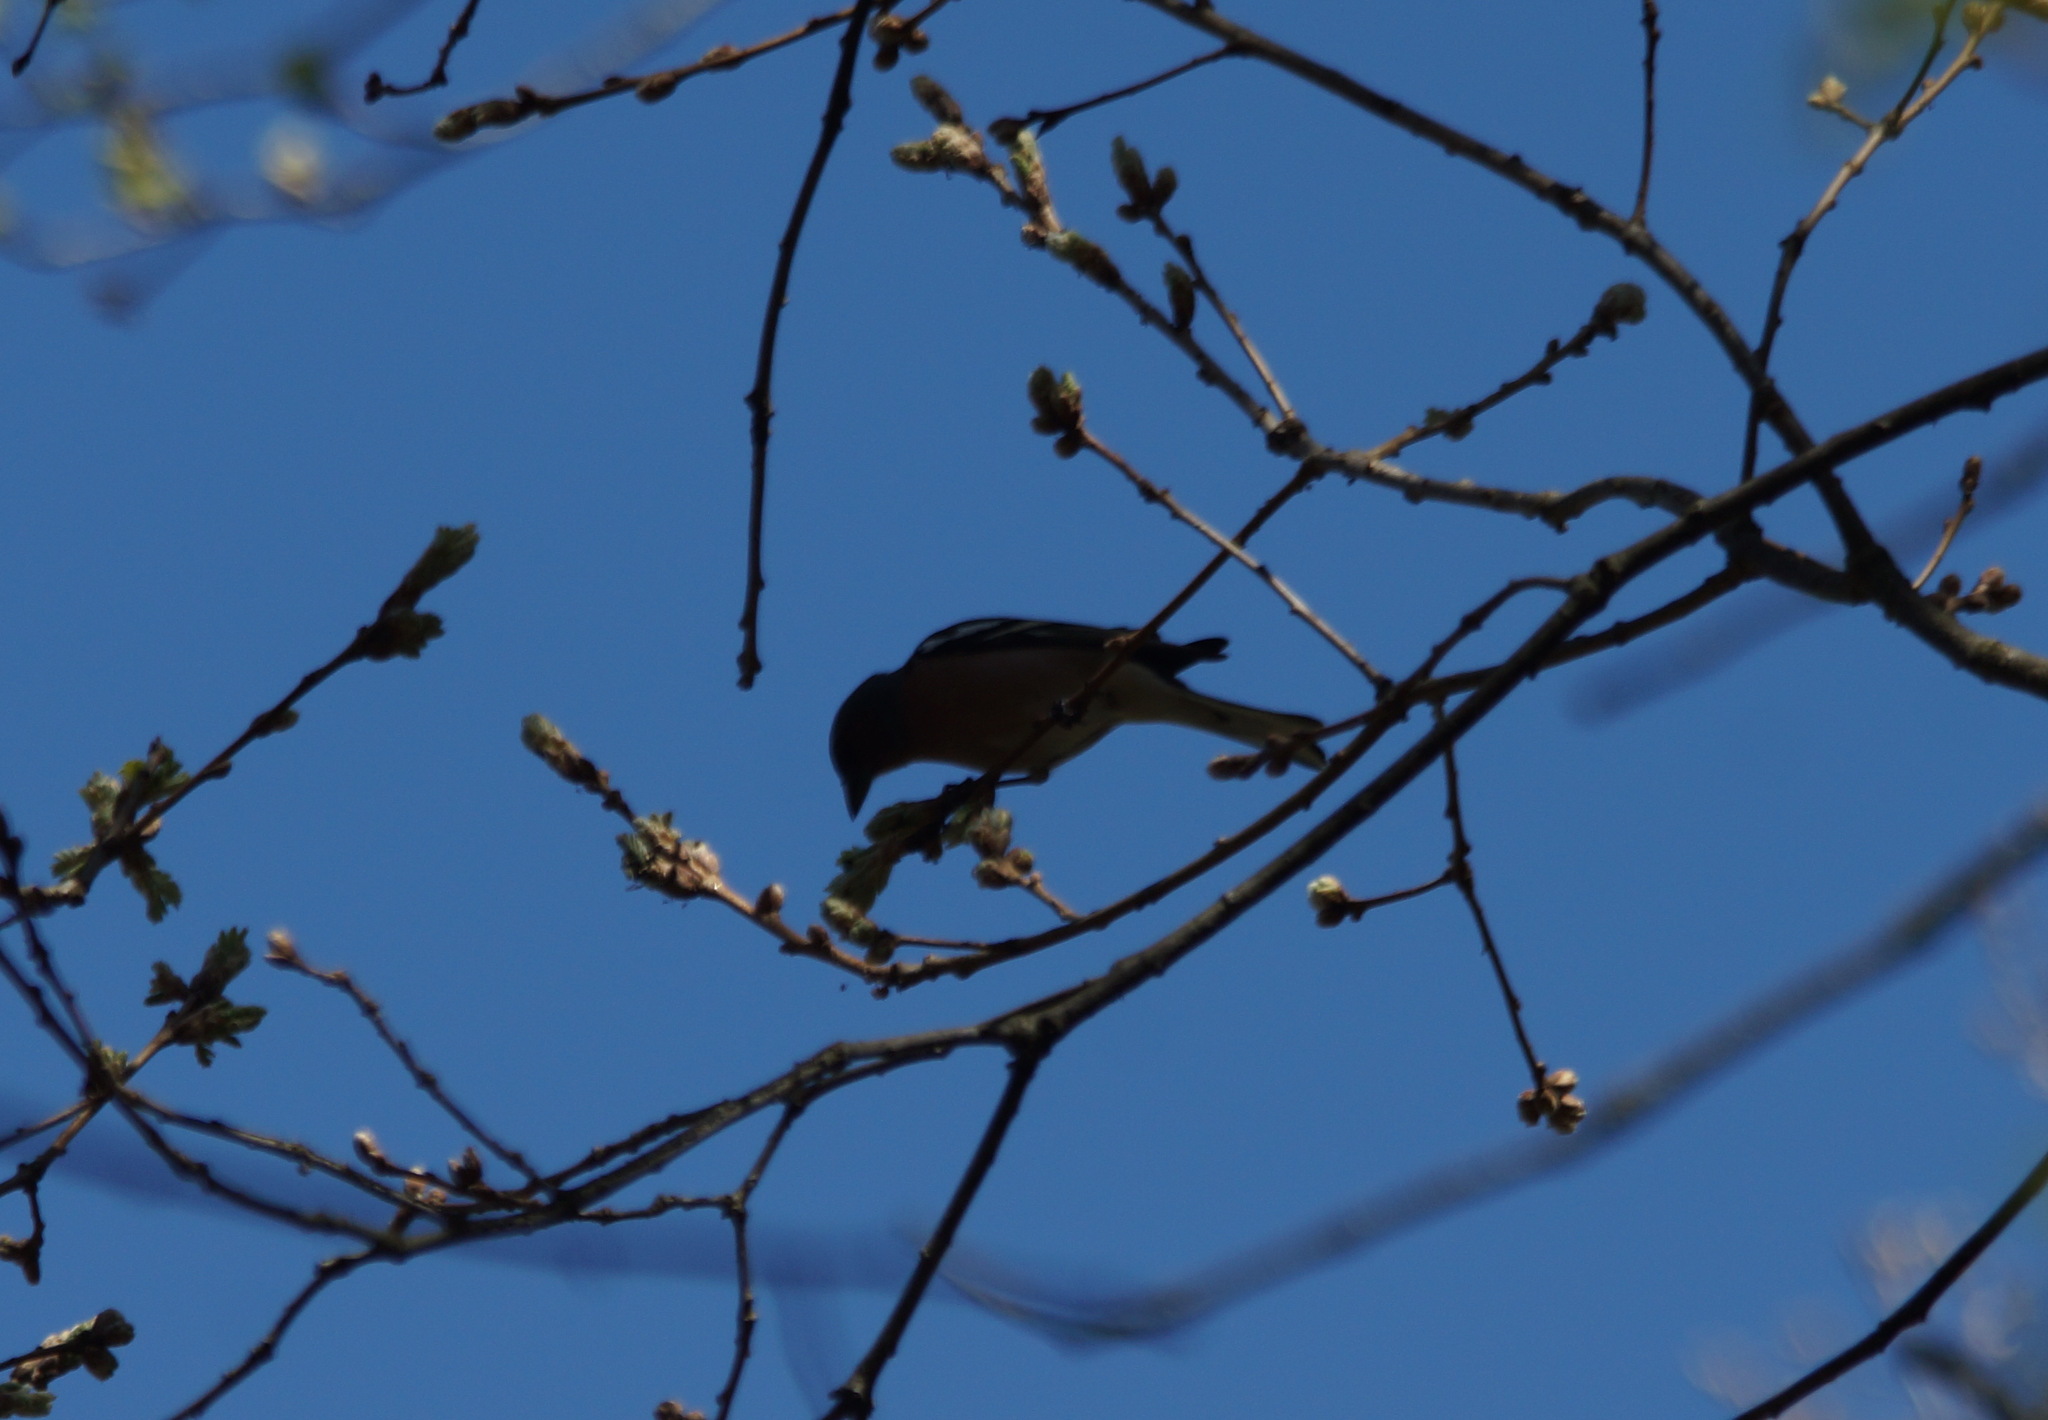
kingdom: Animalia
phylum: Chordata
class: Aves
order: Passeriformes
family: Fringillidae
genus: Fringilla
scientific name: Fringilla coelebs
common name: Common chaffinch
